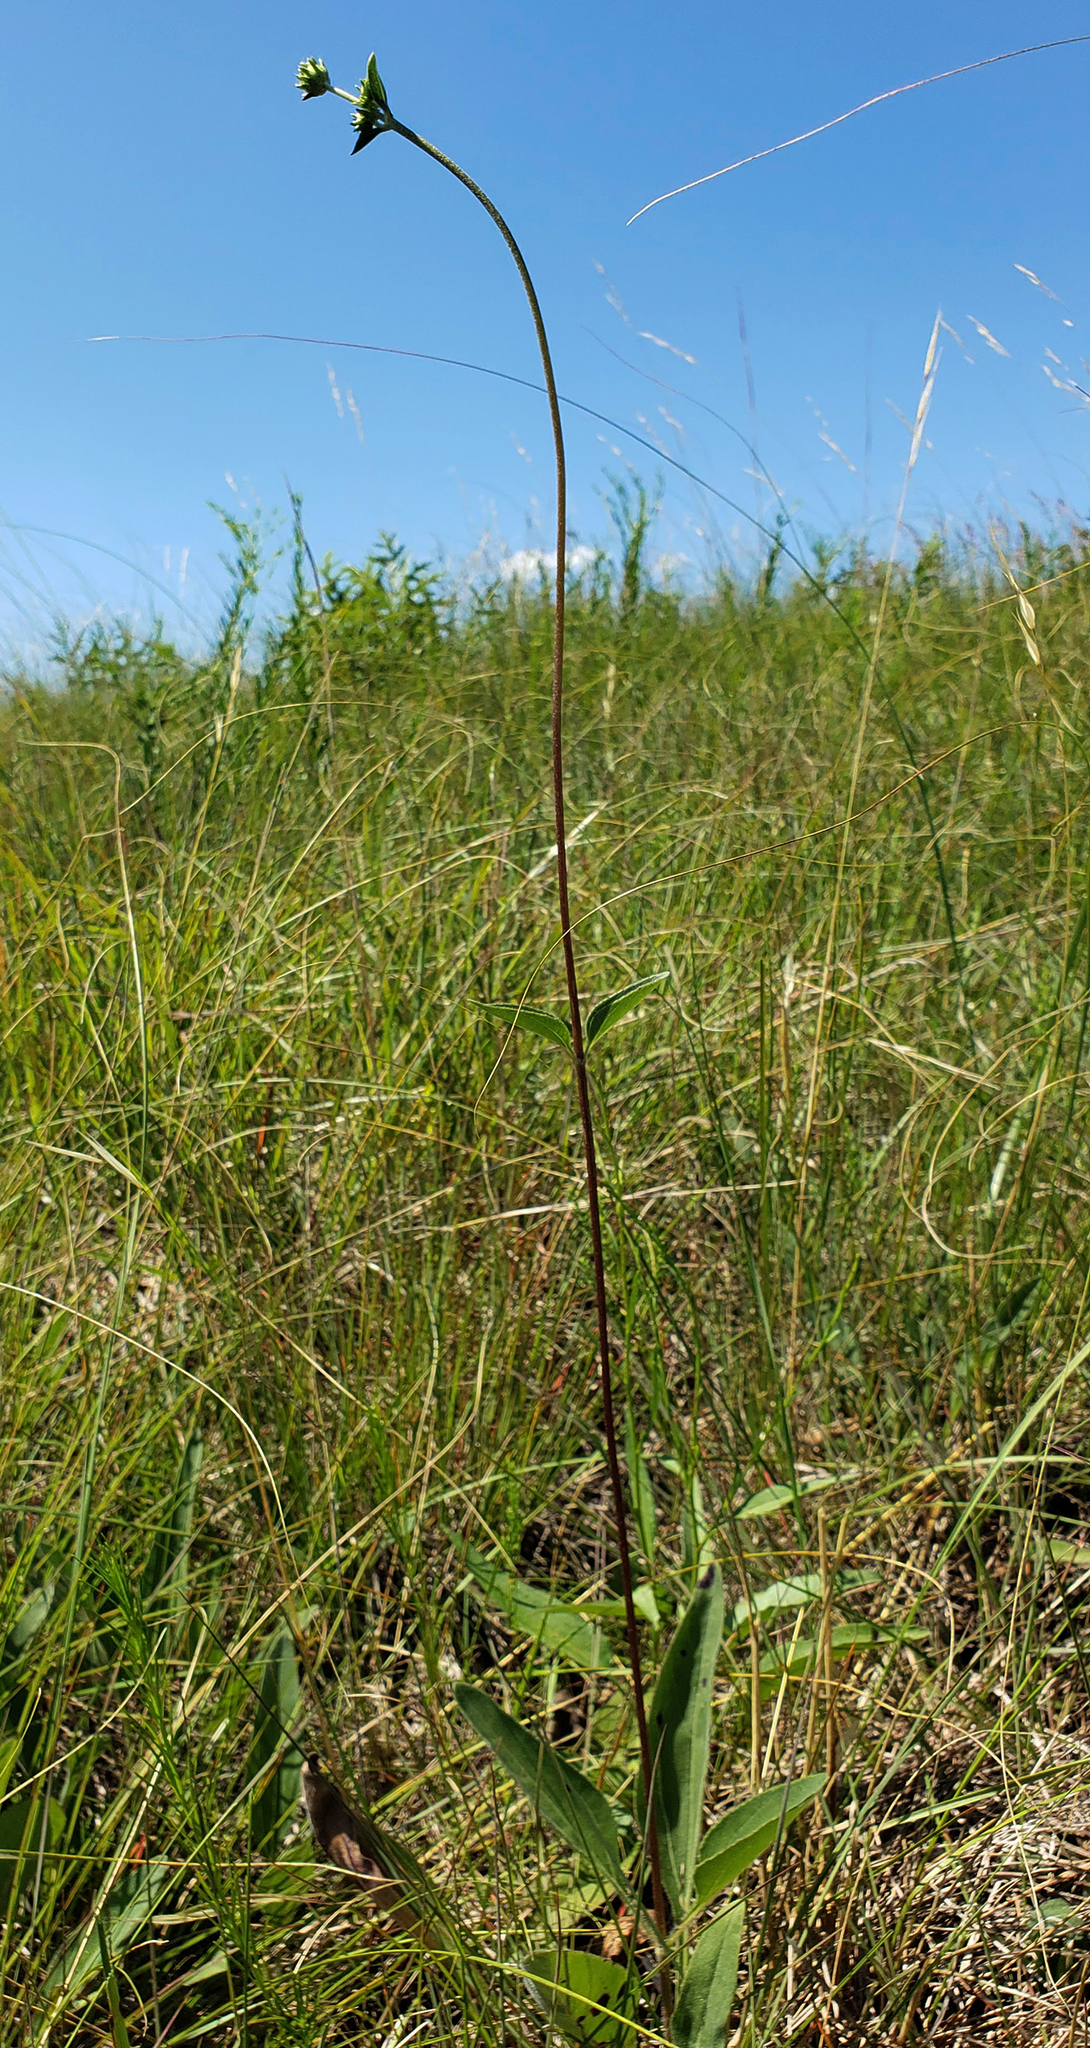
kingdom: Plantae
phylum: Tracheophyta
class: Magnoliopsida
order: Asterales
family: Asteraceae
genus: Helianthus
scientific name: Helianthus occidentalis
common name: Western sunflower
